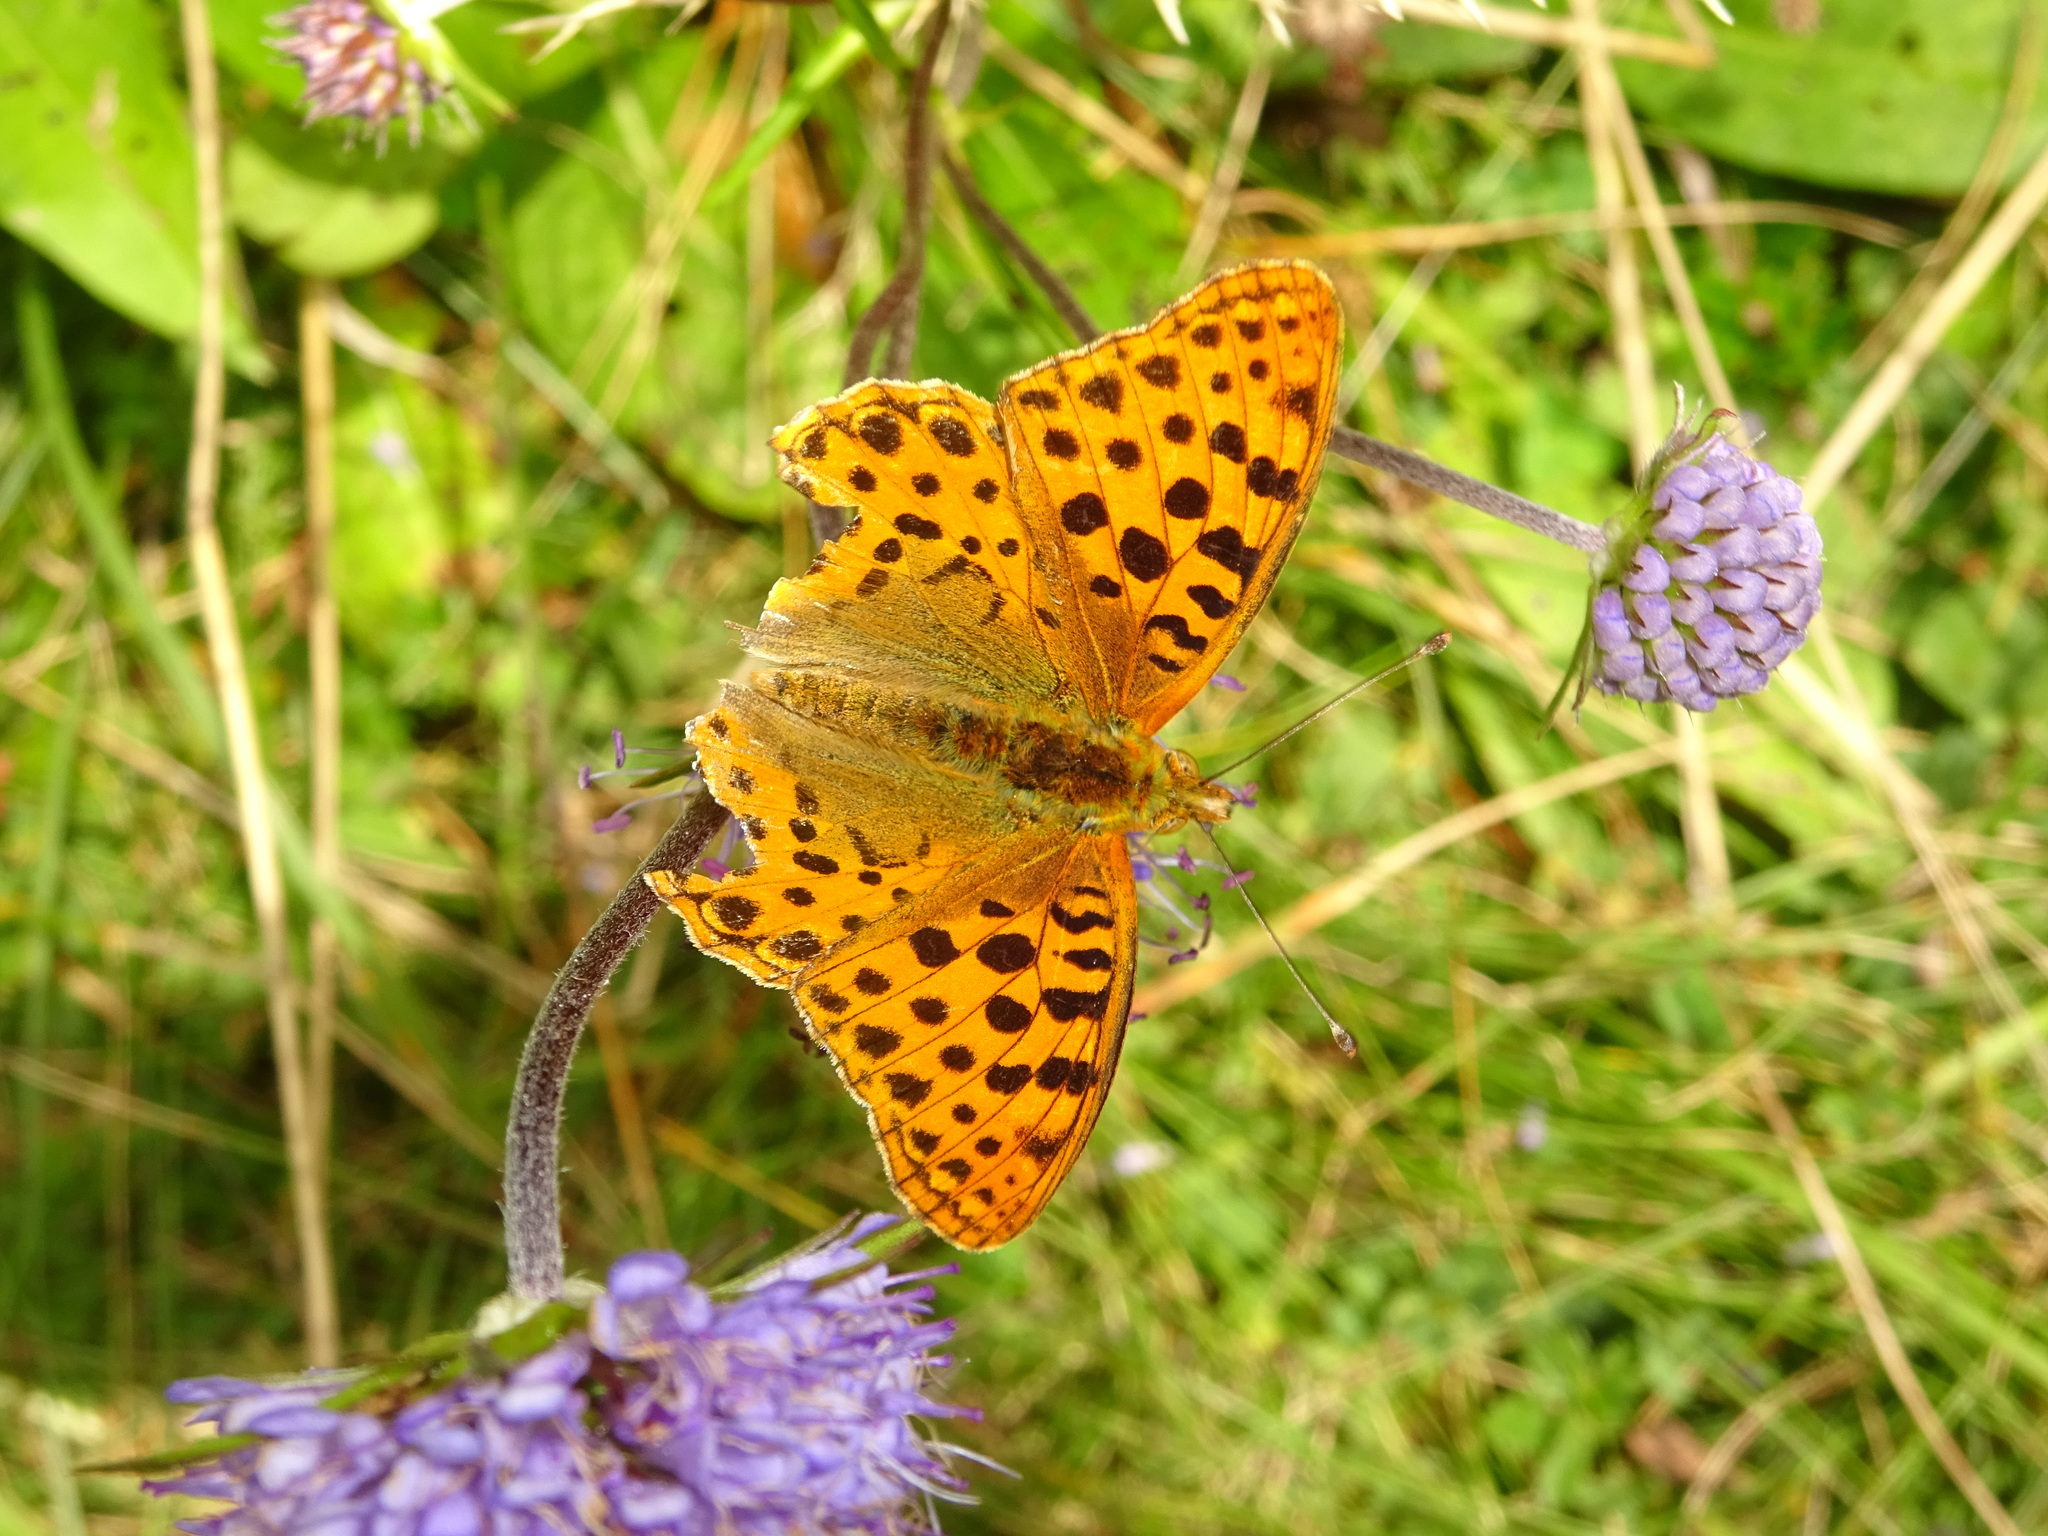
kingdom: Animalia
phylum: Arthropoda
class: Insecta
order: Lepidoptera
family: Nymphalidae
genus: Issoria
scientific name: Issoria lathonia
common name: Queen of spain fritillary
